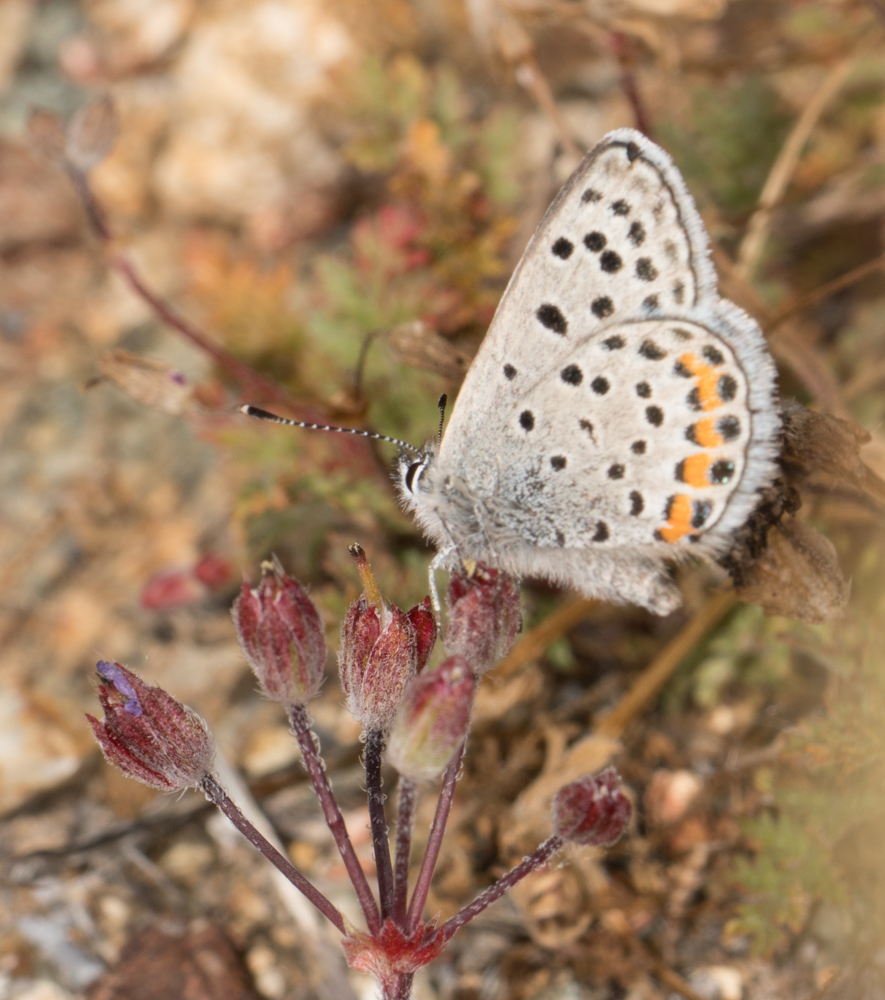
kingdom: Animalia
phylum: Arthropoda
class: Insecta
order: Lepidoptera
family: Lycaenidae
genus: Icaricia
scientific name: Icaricia acmon
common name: Acmon blue
